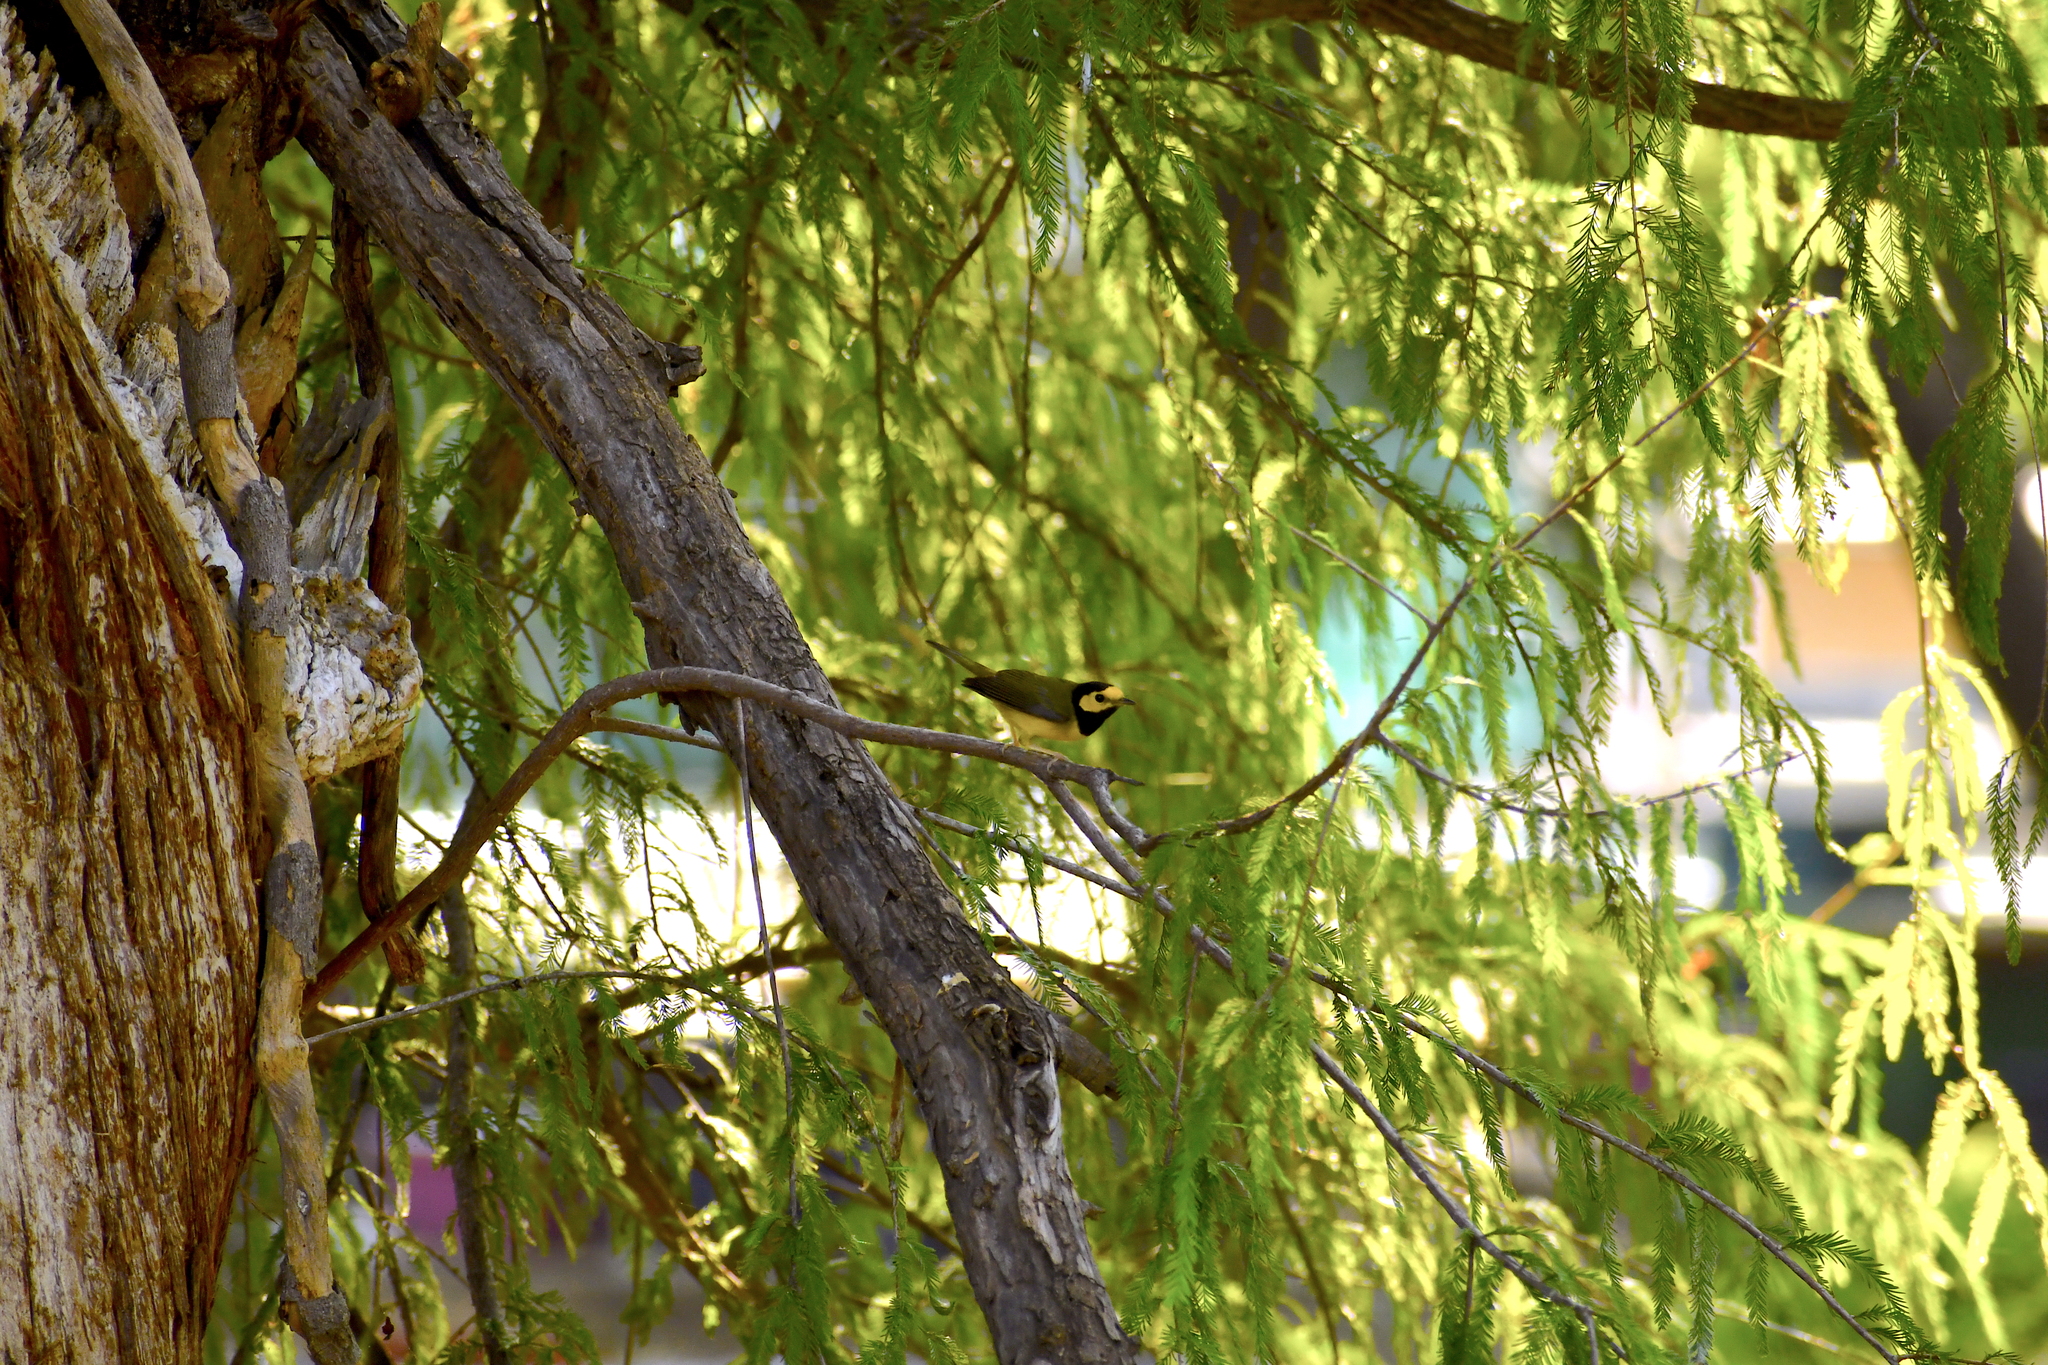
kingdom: Animalia
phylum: Chordata
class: Aves
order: Passeriformes
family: Parulidae
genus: Setophaga
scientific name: Setophaga citrina
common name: Hooded warbler
